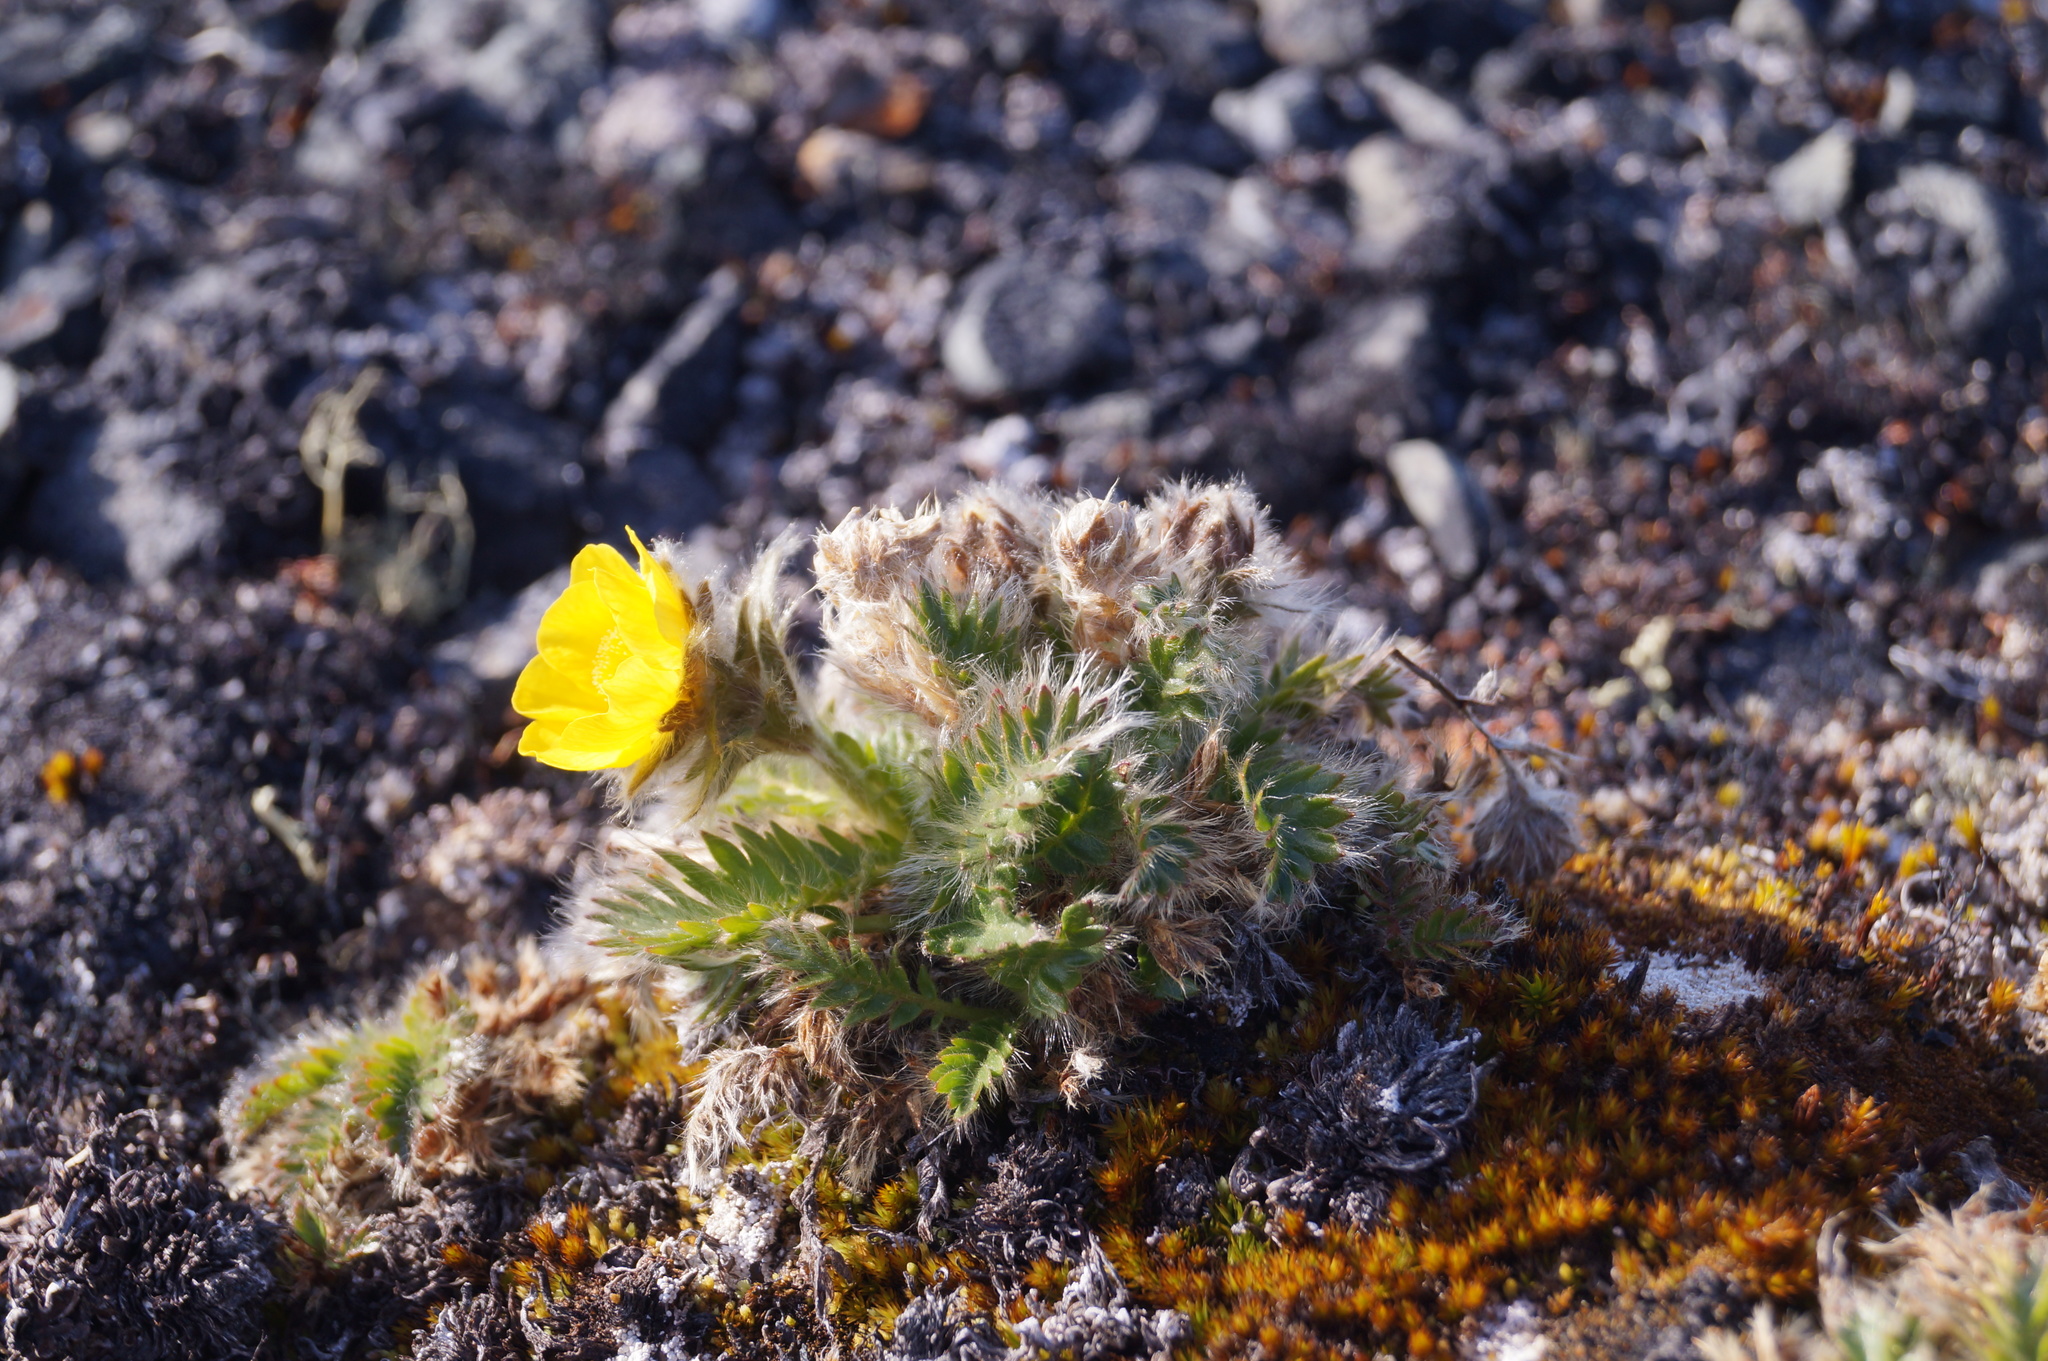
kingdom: Plantae
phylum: Tracheophyta
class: Magnoliopsida
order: Rosales
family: Rosaceae
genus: Geum
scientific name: Geum glaciale
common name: Glacier avens
